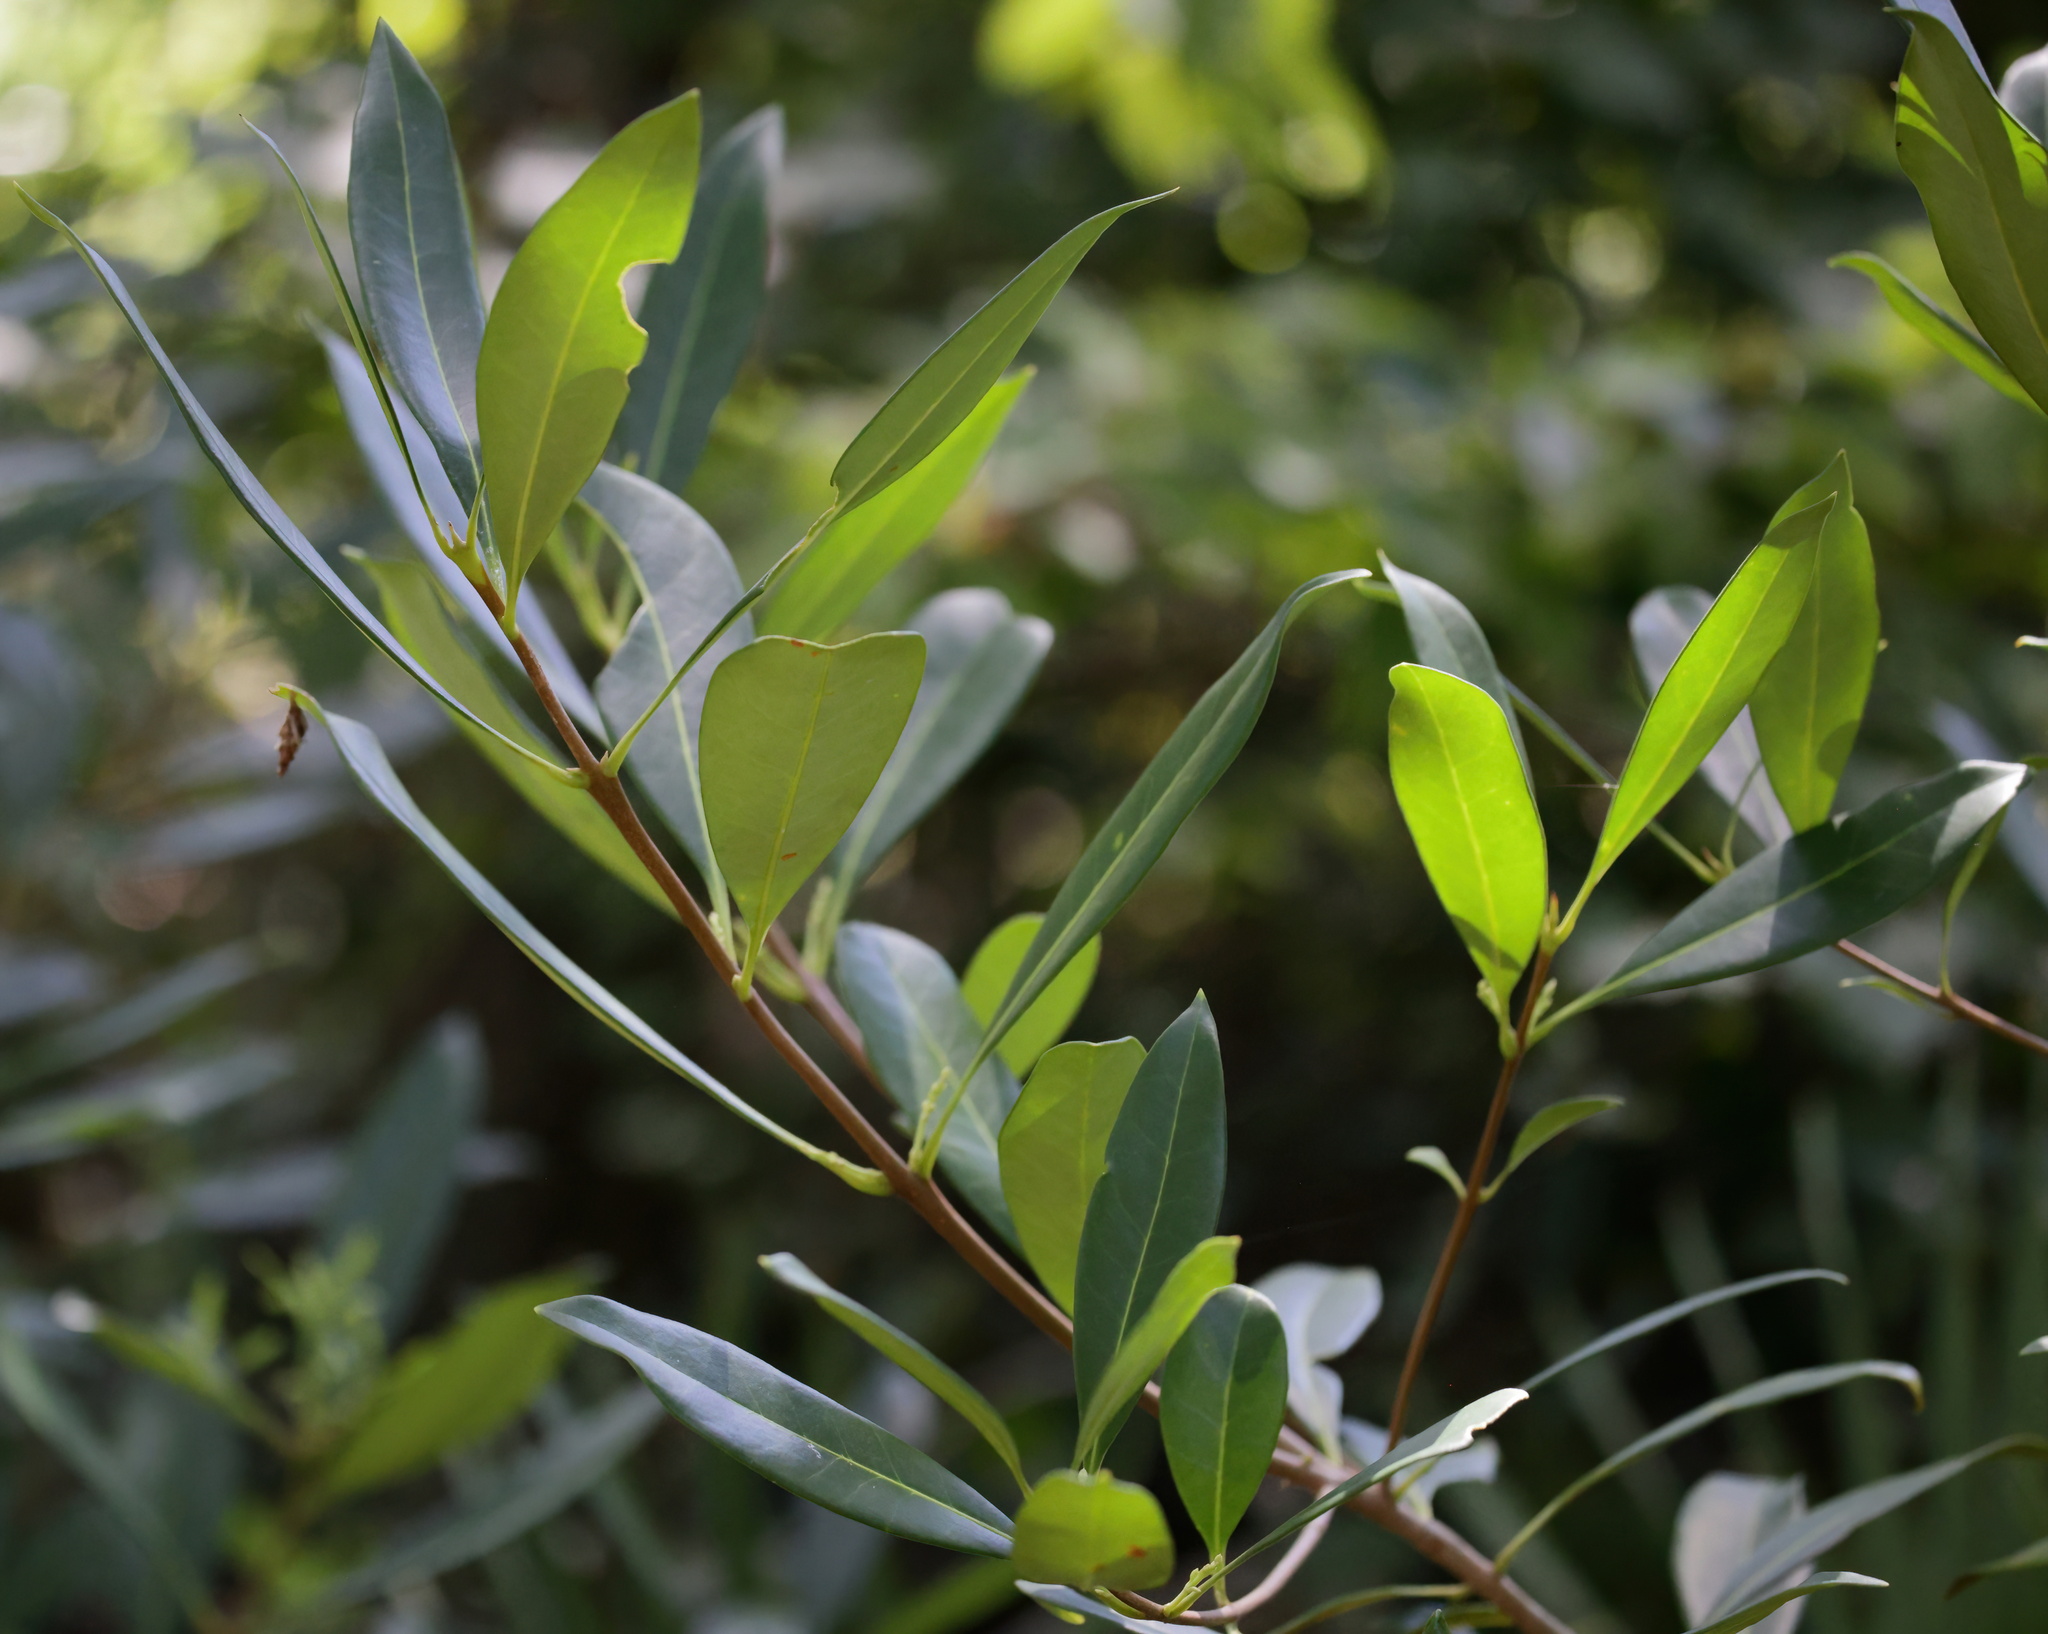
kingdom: Plantae
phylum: Tracheophyta
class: Magnoliopsida
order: Lamiales
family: Oleaceae
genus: Cartrema
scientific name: Cartrema americana
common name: Devilwood
